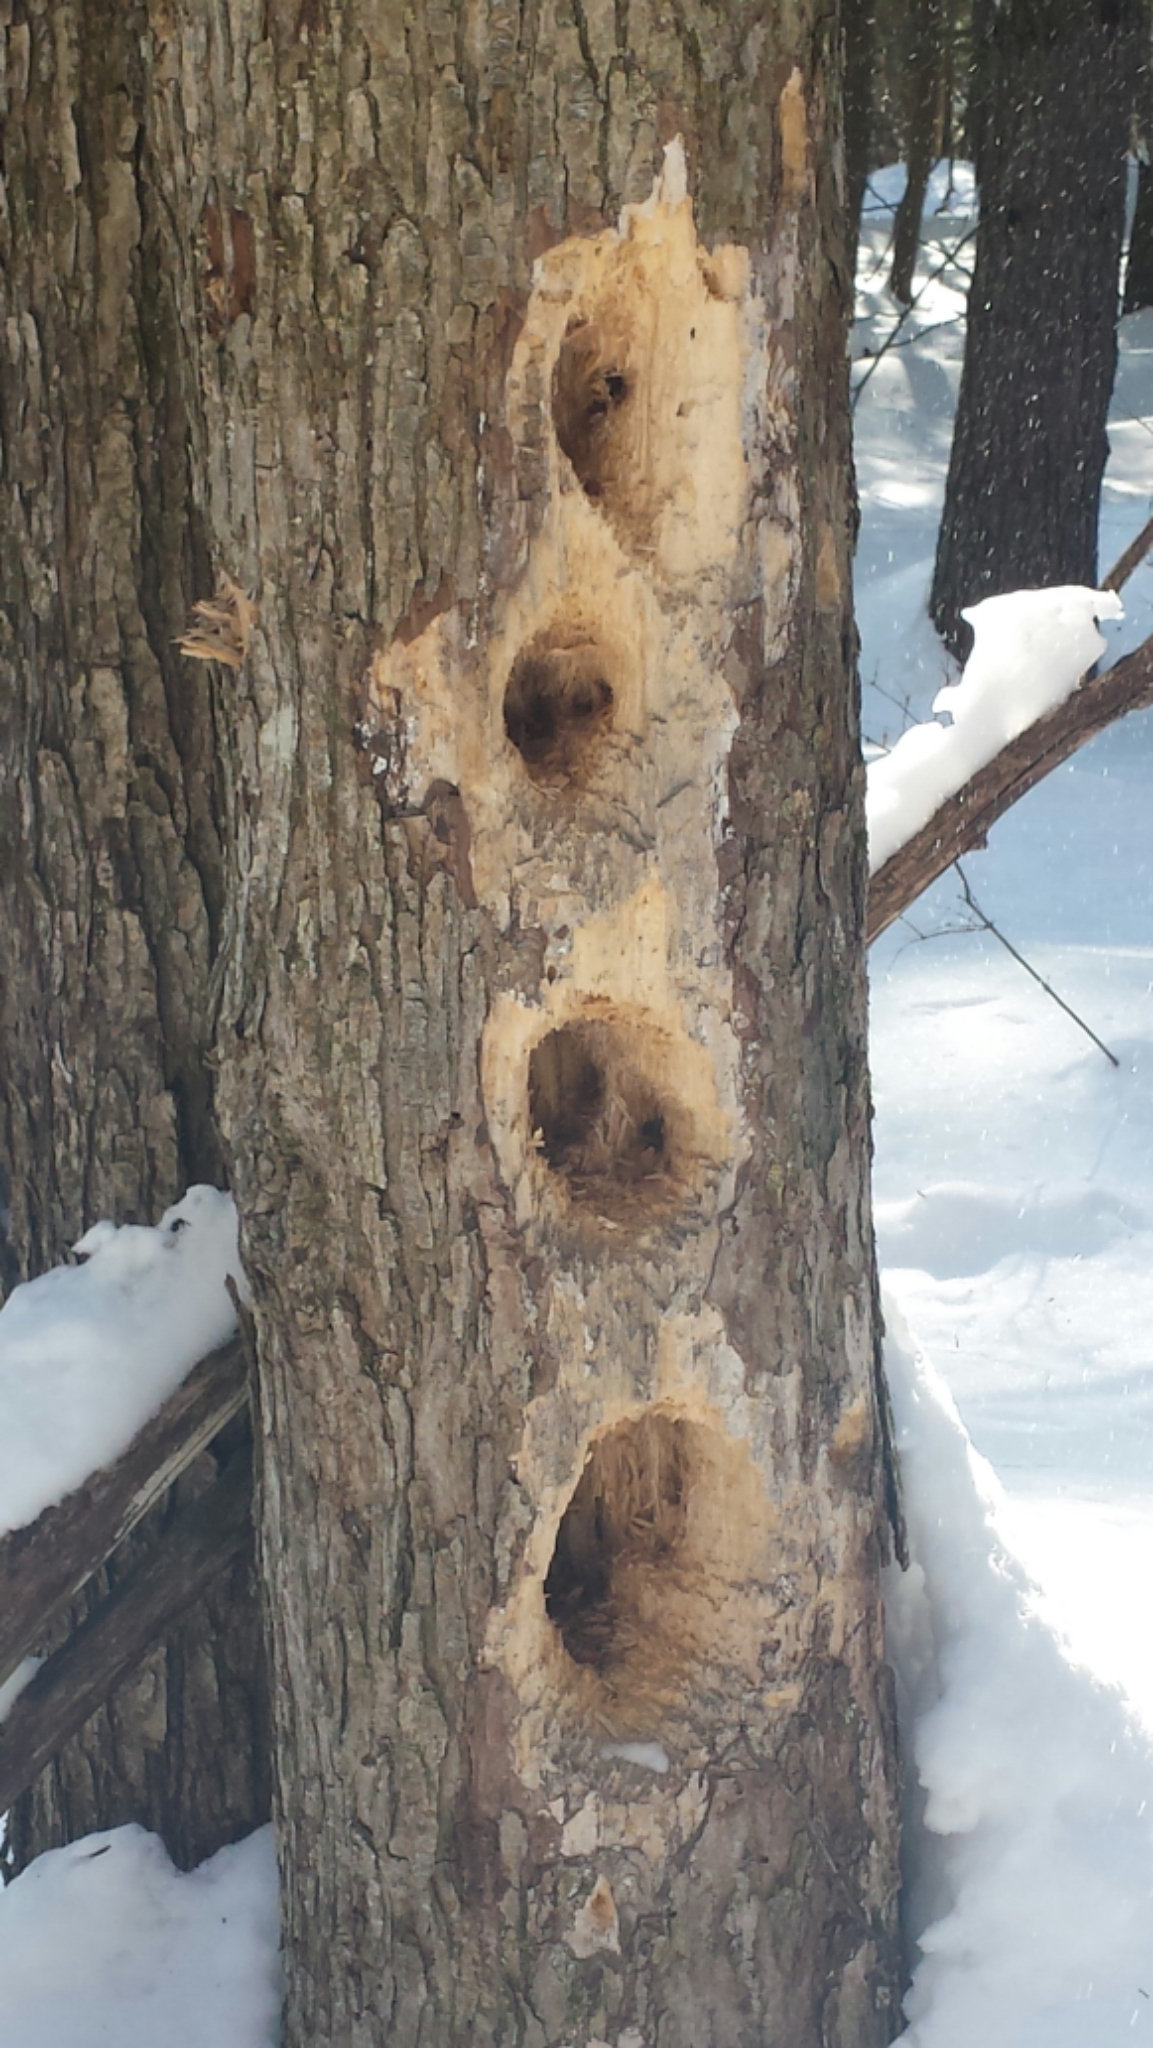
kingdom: Animalia
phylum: Chordata
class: Aves
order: Piciformes
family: Picidae
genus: Dryocopus
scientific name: Dryocopus pileatus
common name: Pileated woodpecker
